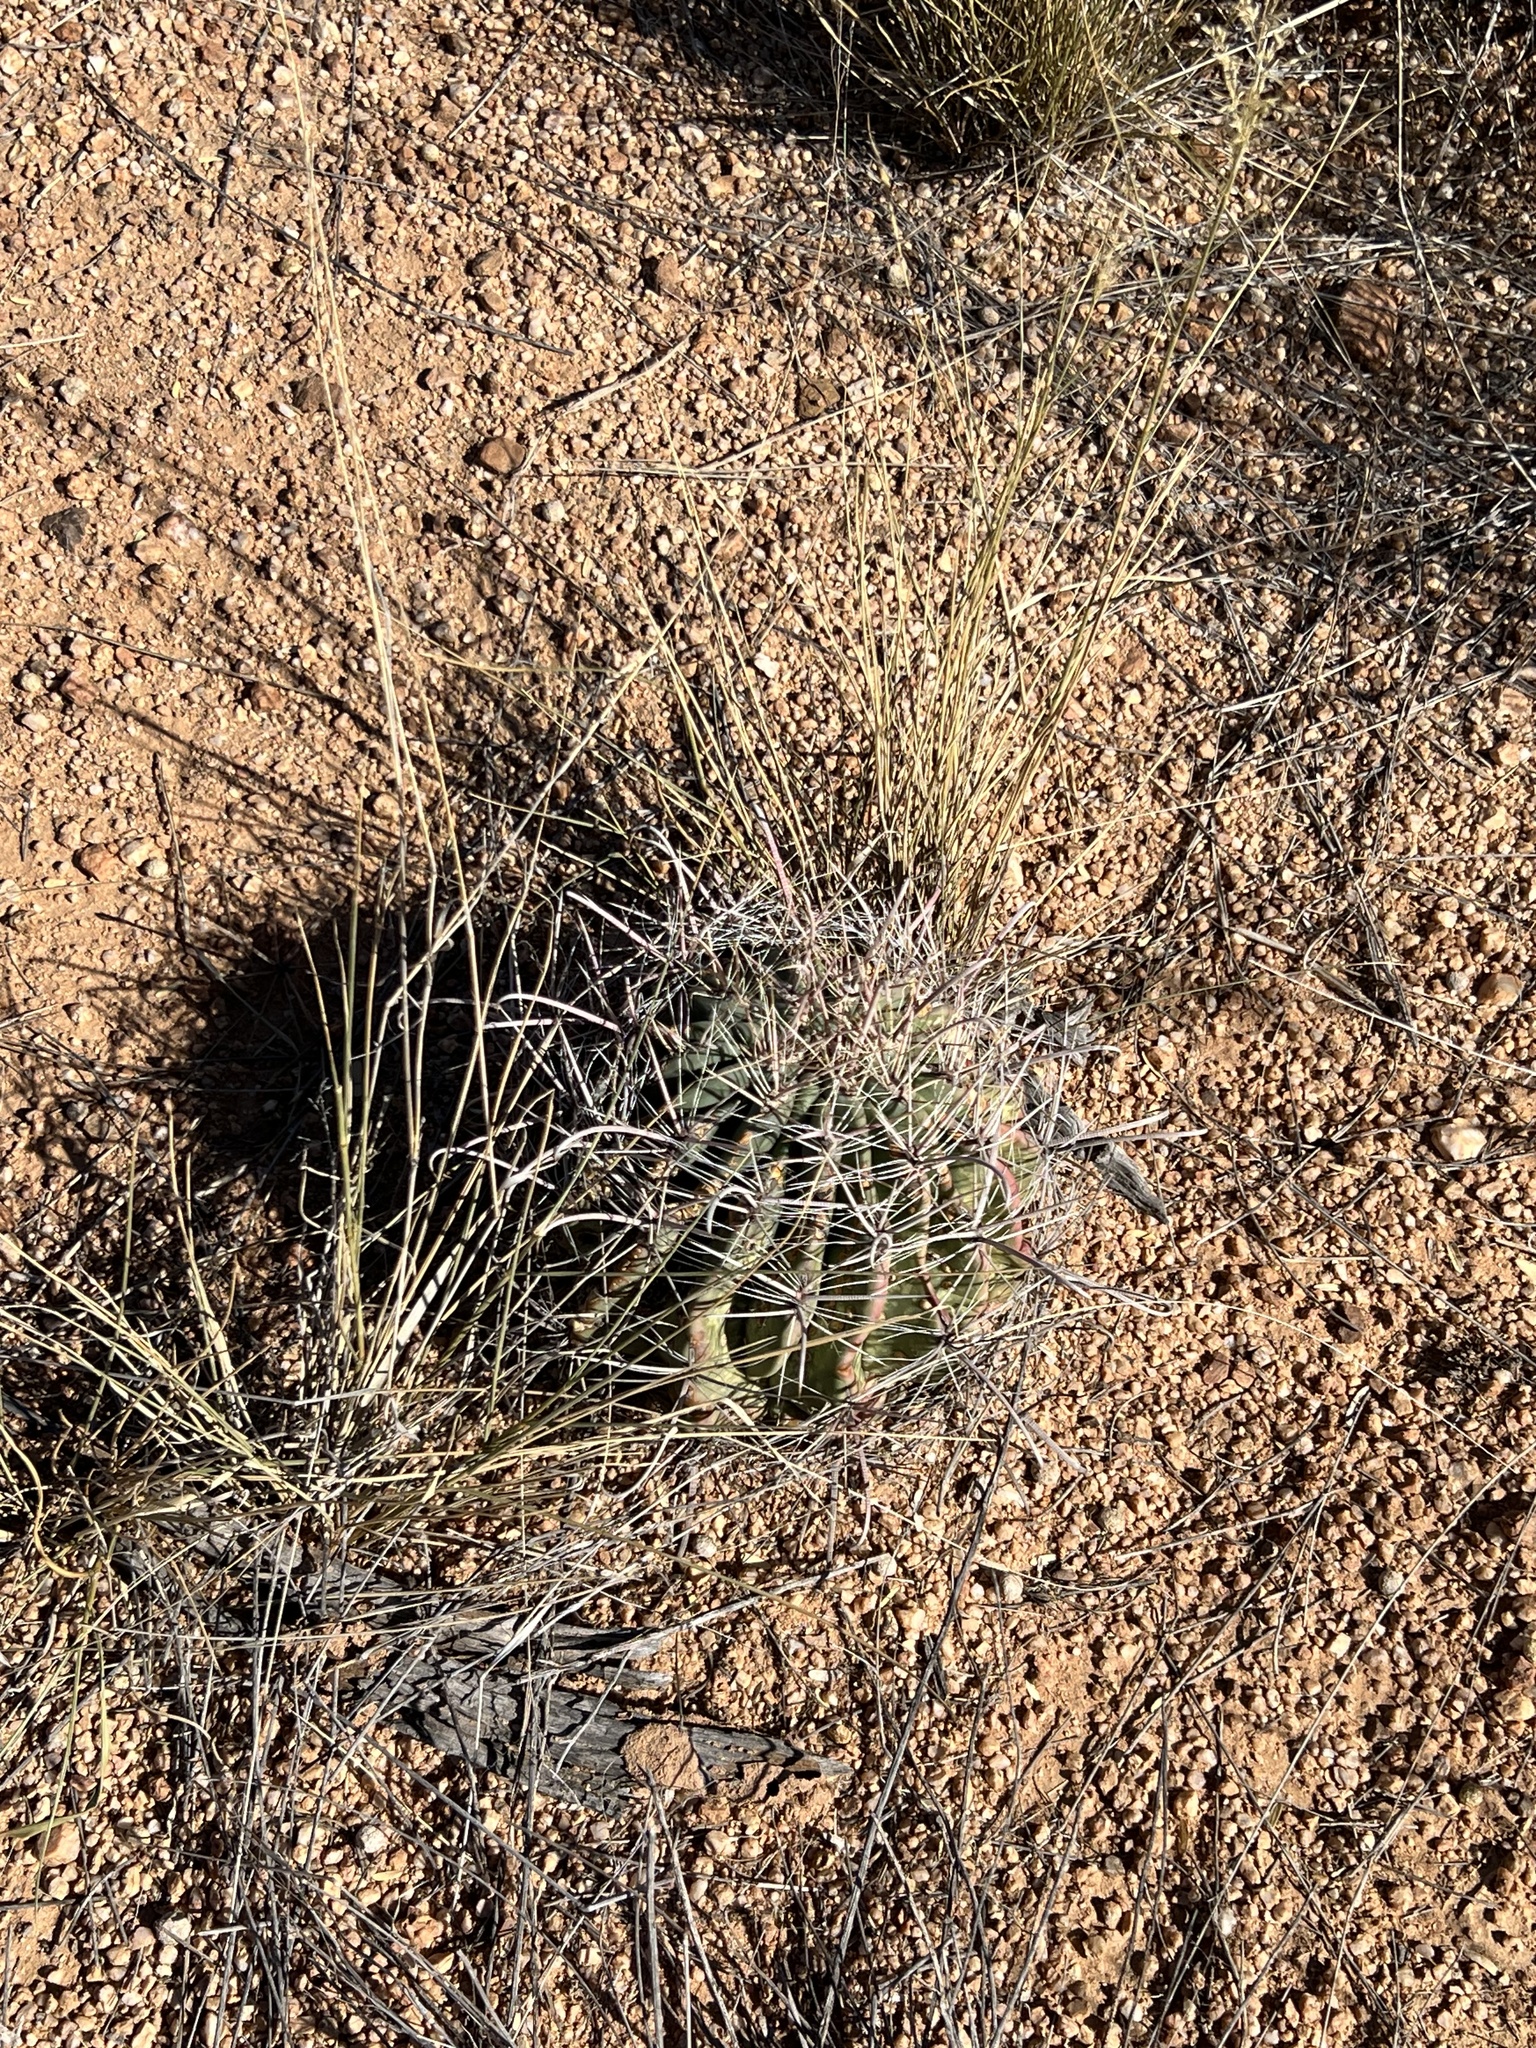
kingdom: Plantae
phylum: Tracheophyta
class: Magnoliopsida
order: Caryophyllales
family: Cactaceae
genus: Ferocactus
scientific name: Ferocactus wislizeni
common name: Candy barrel cactus
